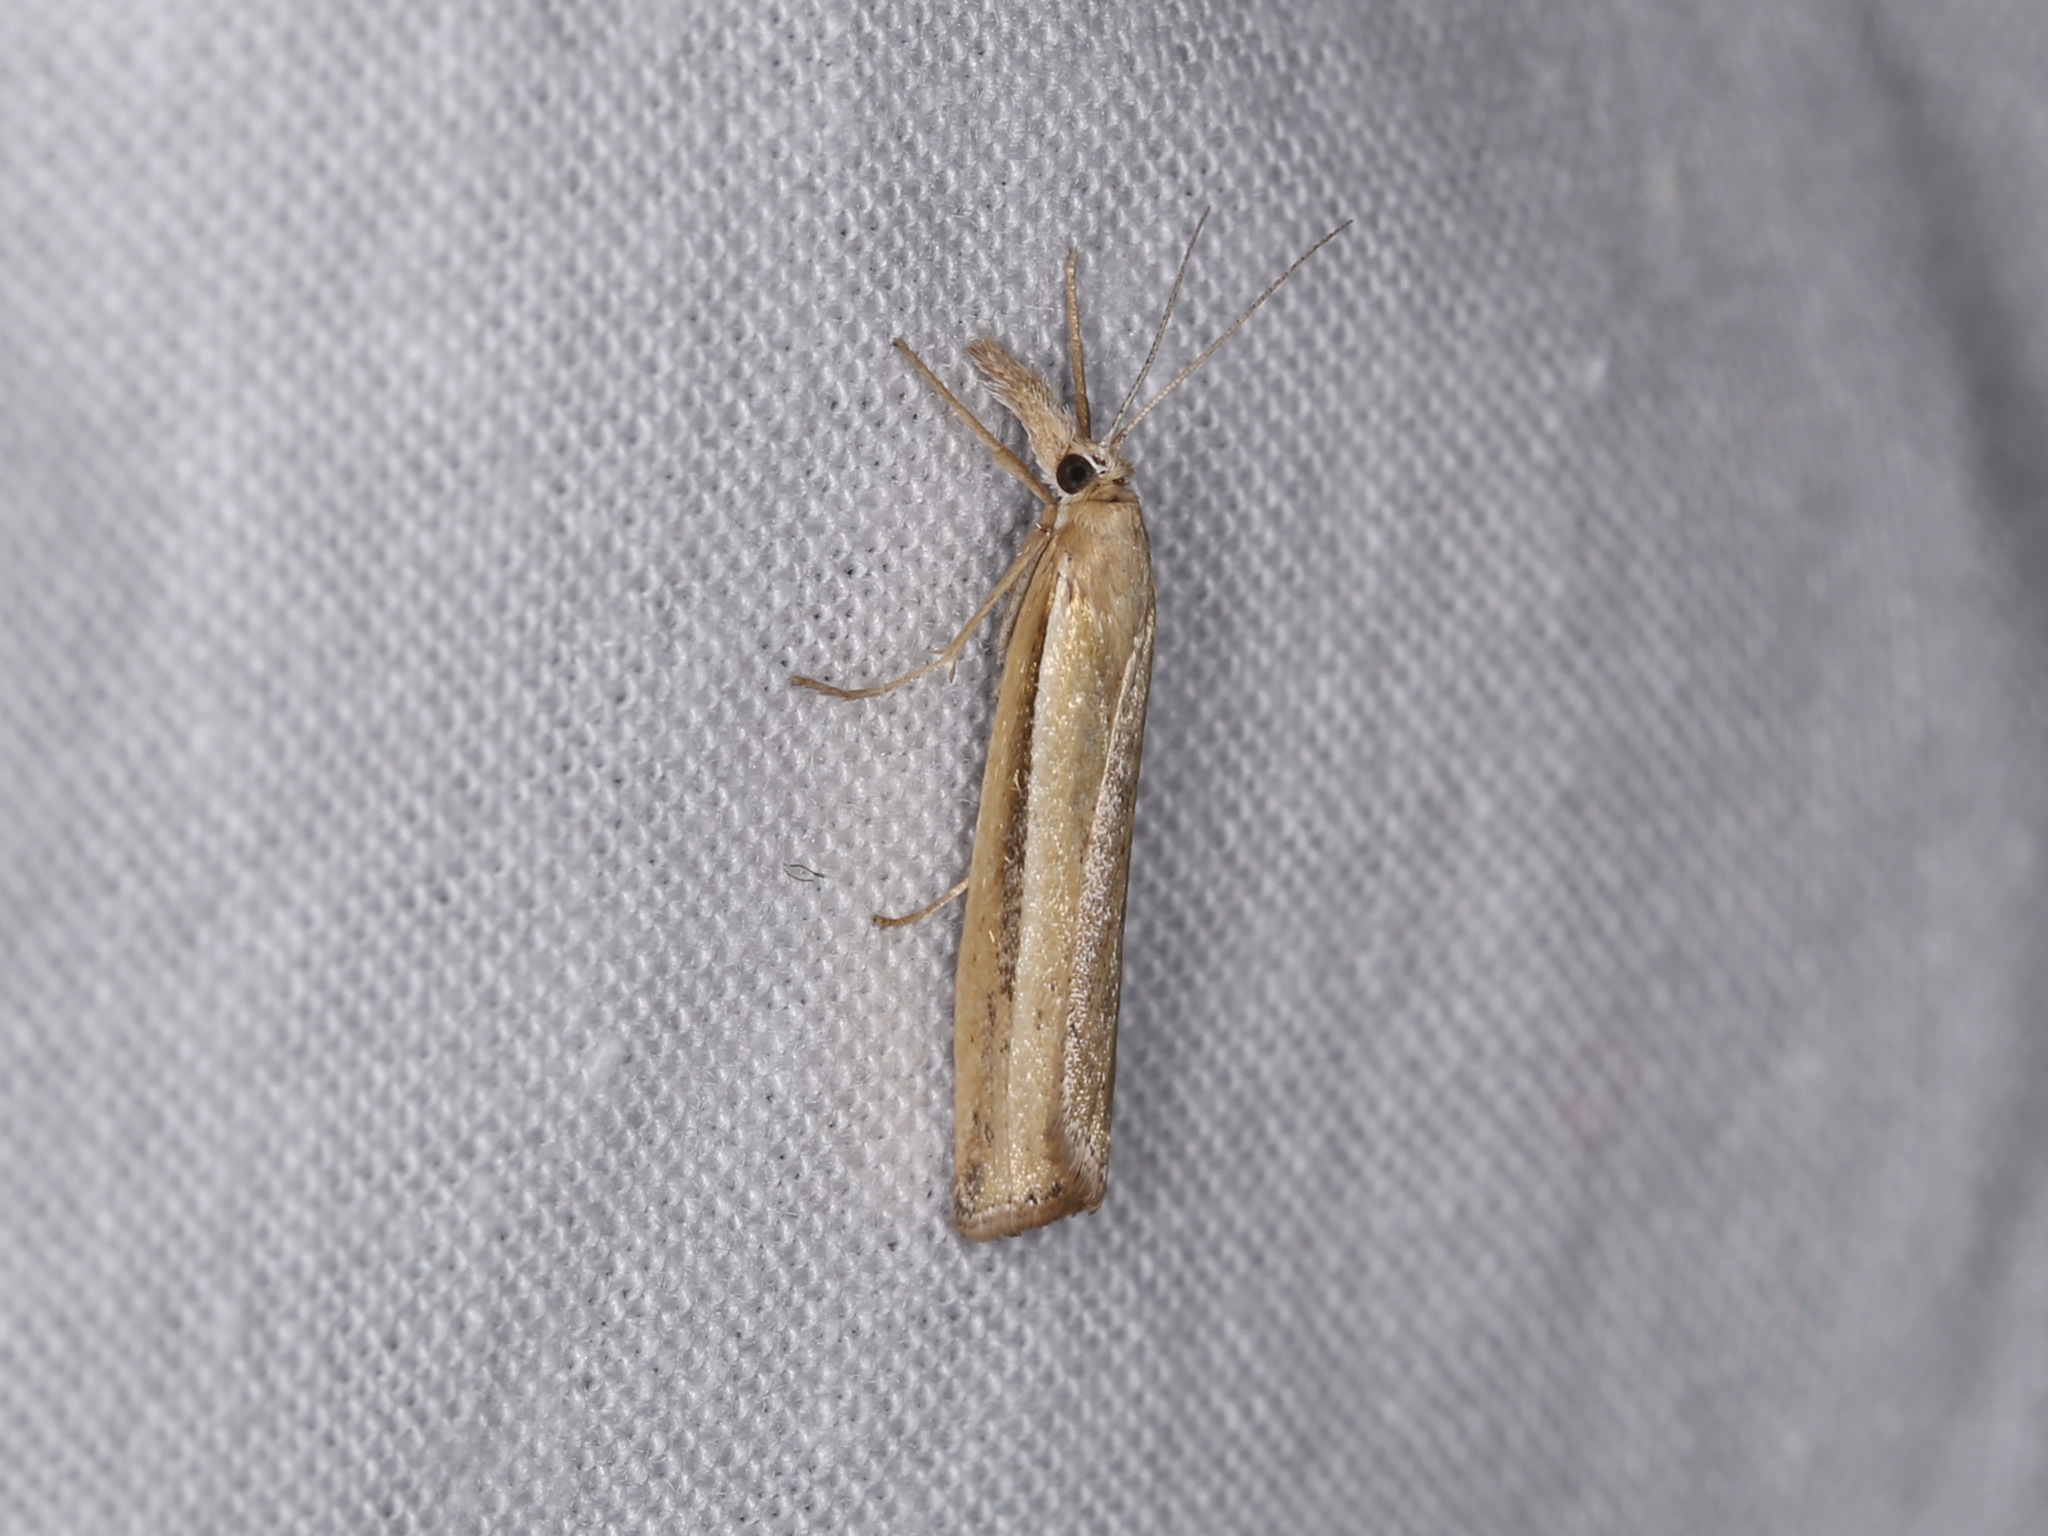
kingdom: Animalia
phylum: Arthropoda
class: Insecta
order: Lepidoptera
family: Crambidae
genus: Crambus
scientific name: Crambus tenuistriga
